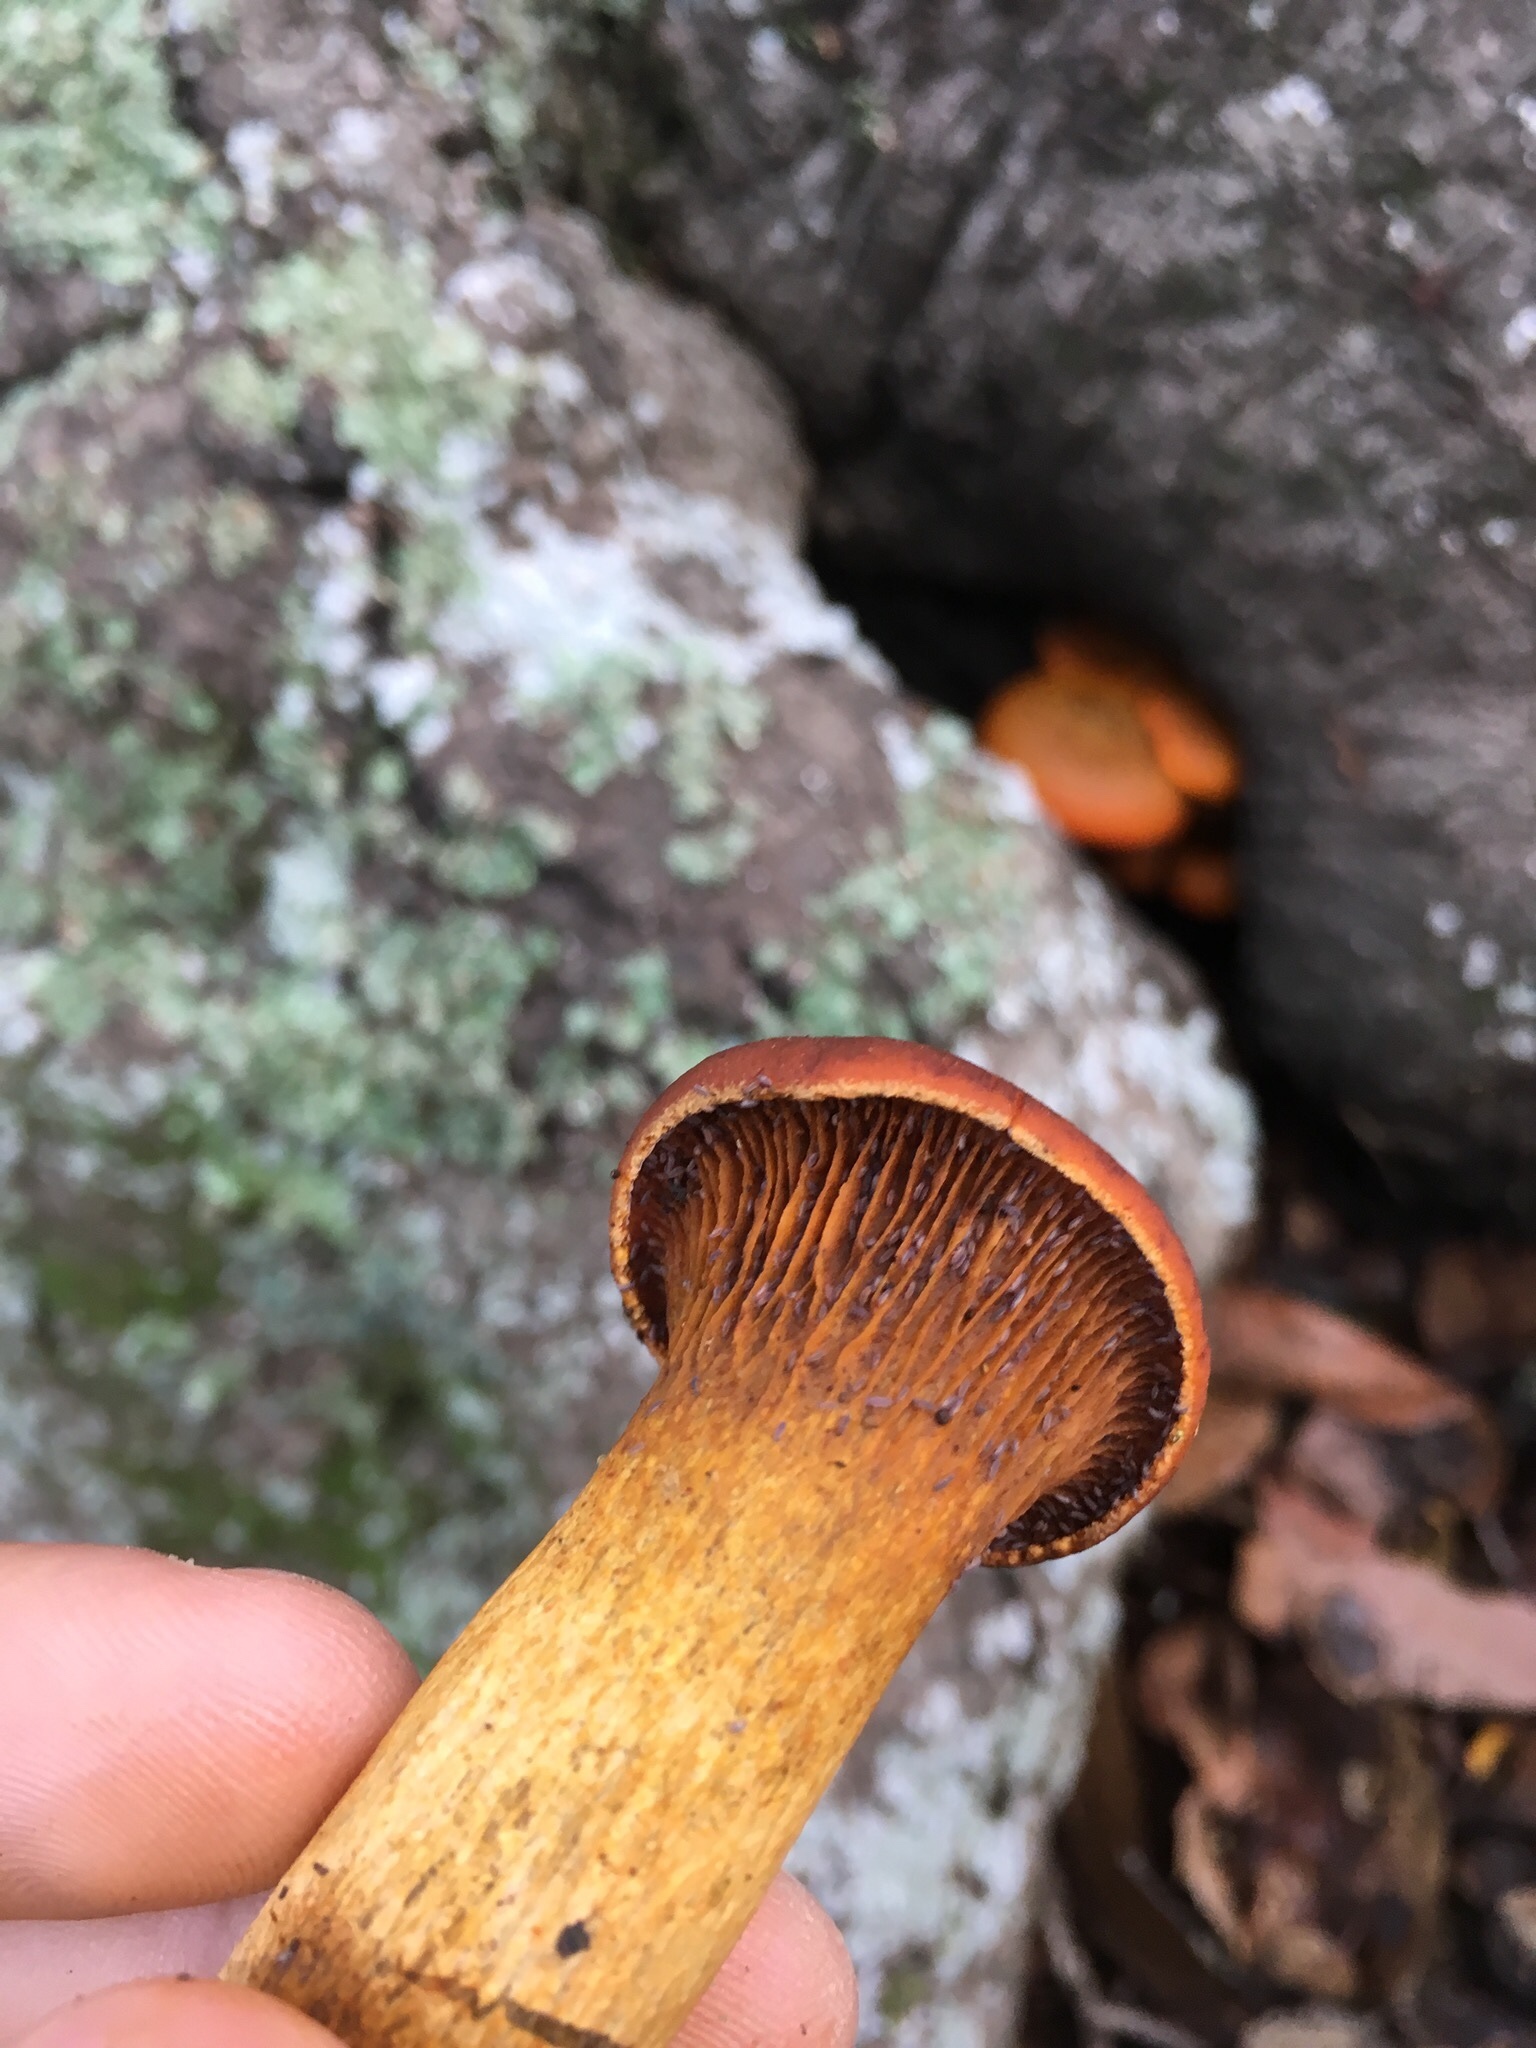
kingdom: Fungi
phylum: Basidiomycota
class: Agaricomycetes
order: Agaricales
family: Omphalotaceae
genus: Omphalotus
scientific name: Omphalotus olivascens
